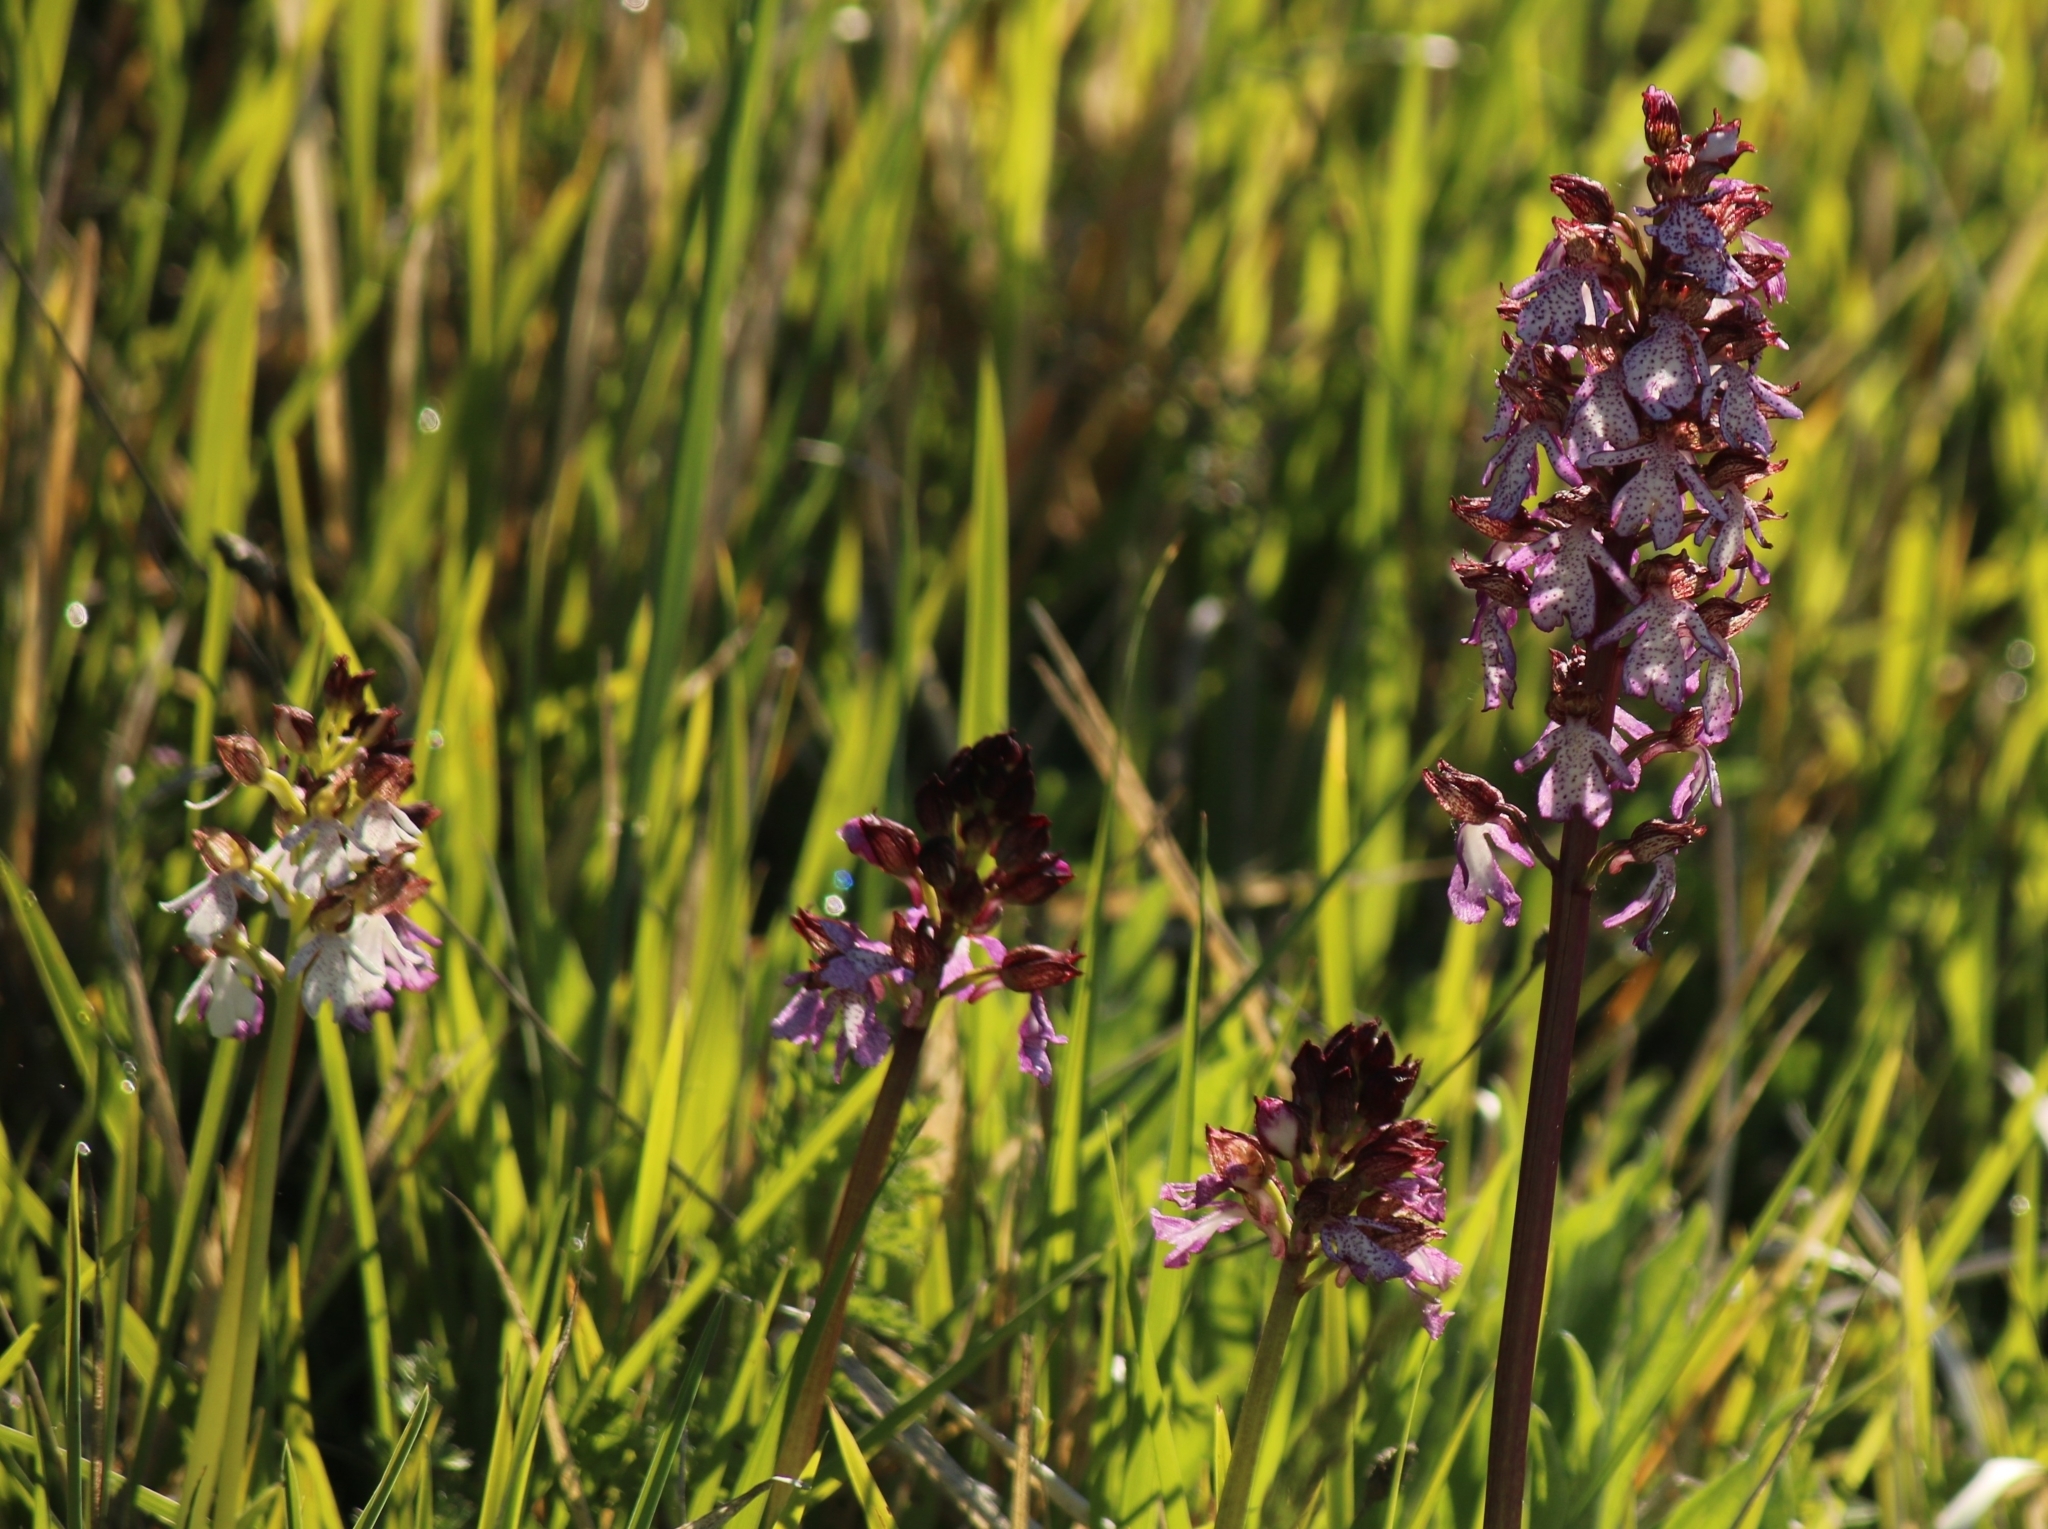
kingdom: Plantae
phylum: Tracheophyta
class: Liliopsida
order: Asparagales
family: Orchidaceae
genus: Orchis
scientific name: Orchis purpurea
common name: Lady orchid
